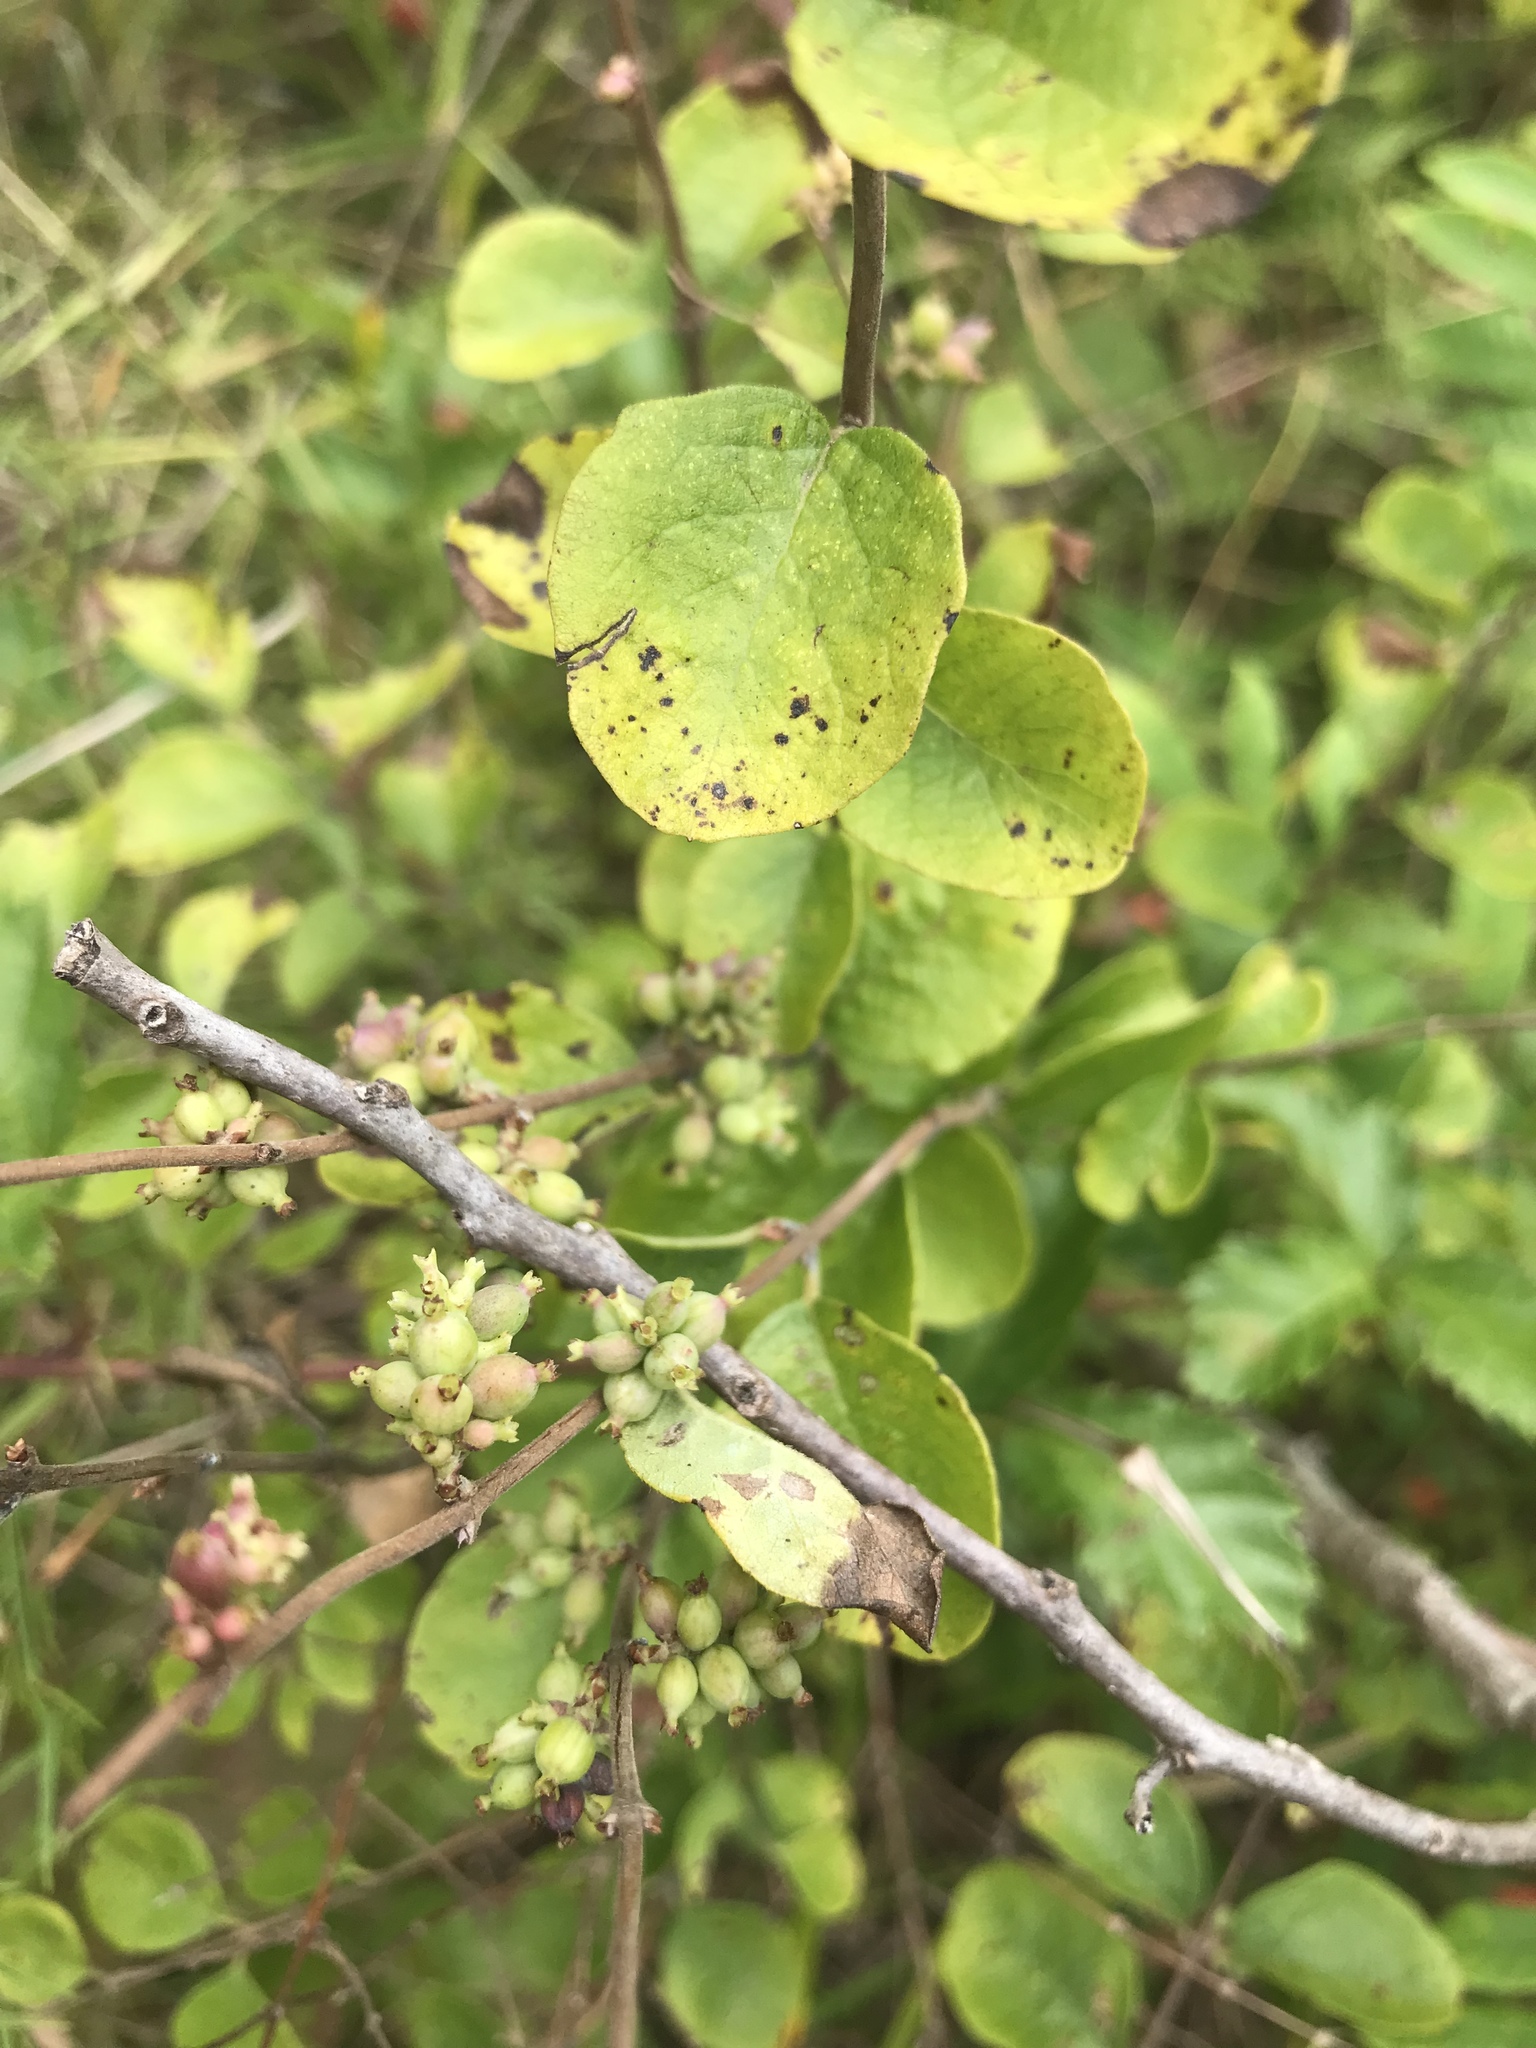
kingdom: Plantae
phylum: Tracheophyta
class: Magnoliopsida
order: Dipsacales
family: Caprifoliaceae
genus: Symphoricarpos
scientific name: Symphoricarpos orbiculatus
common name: Coralberry
